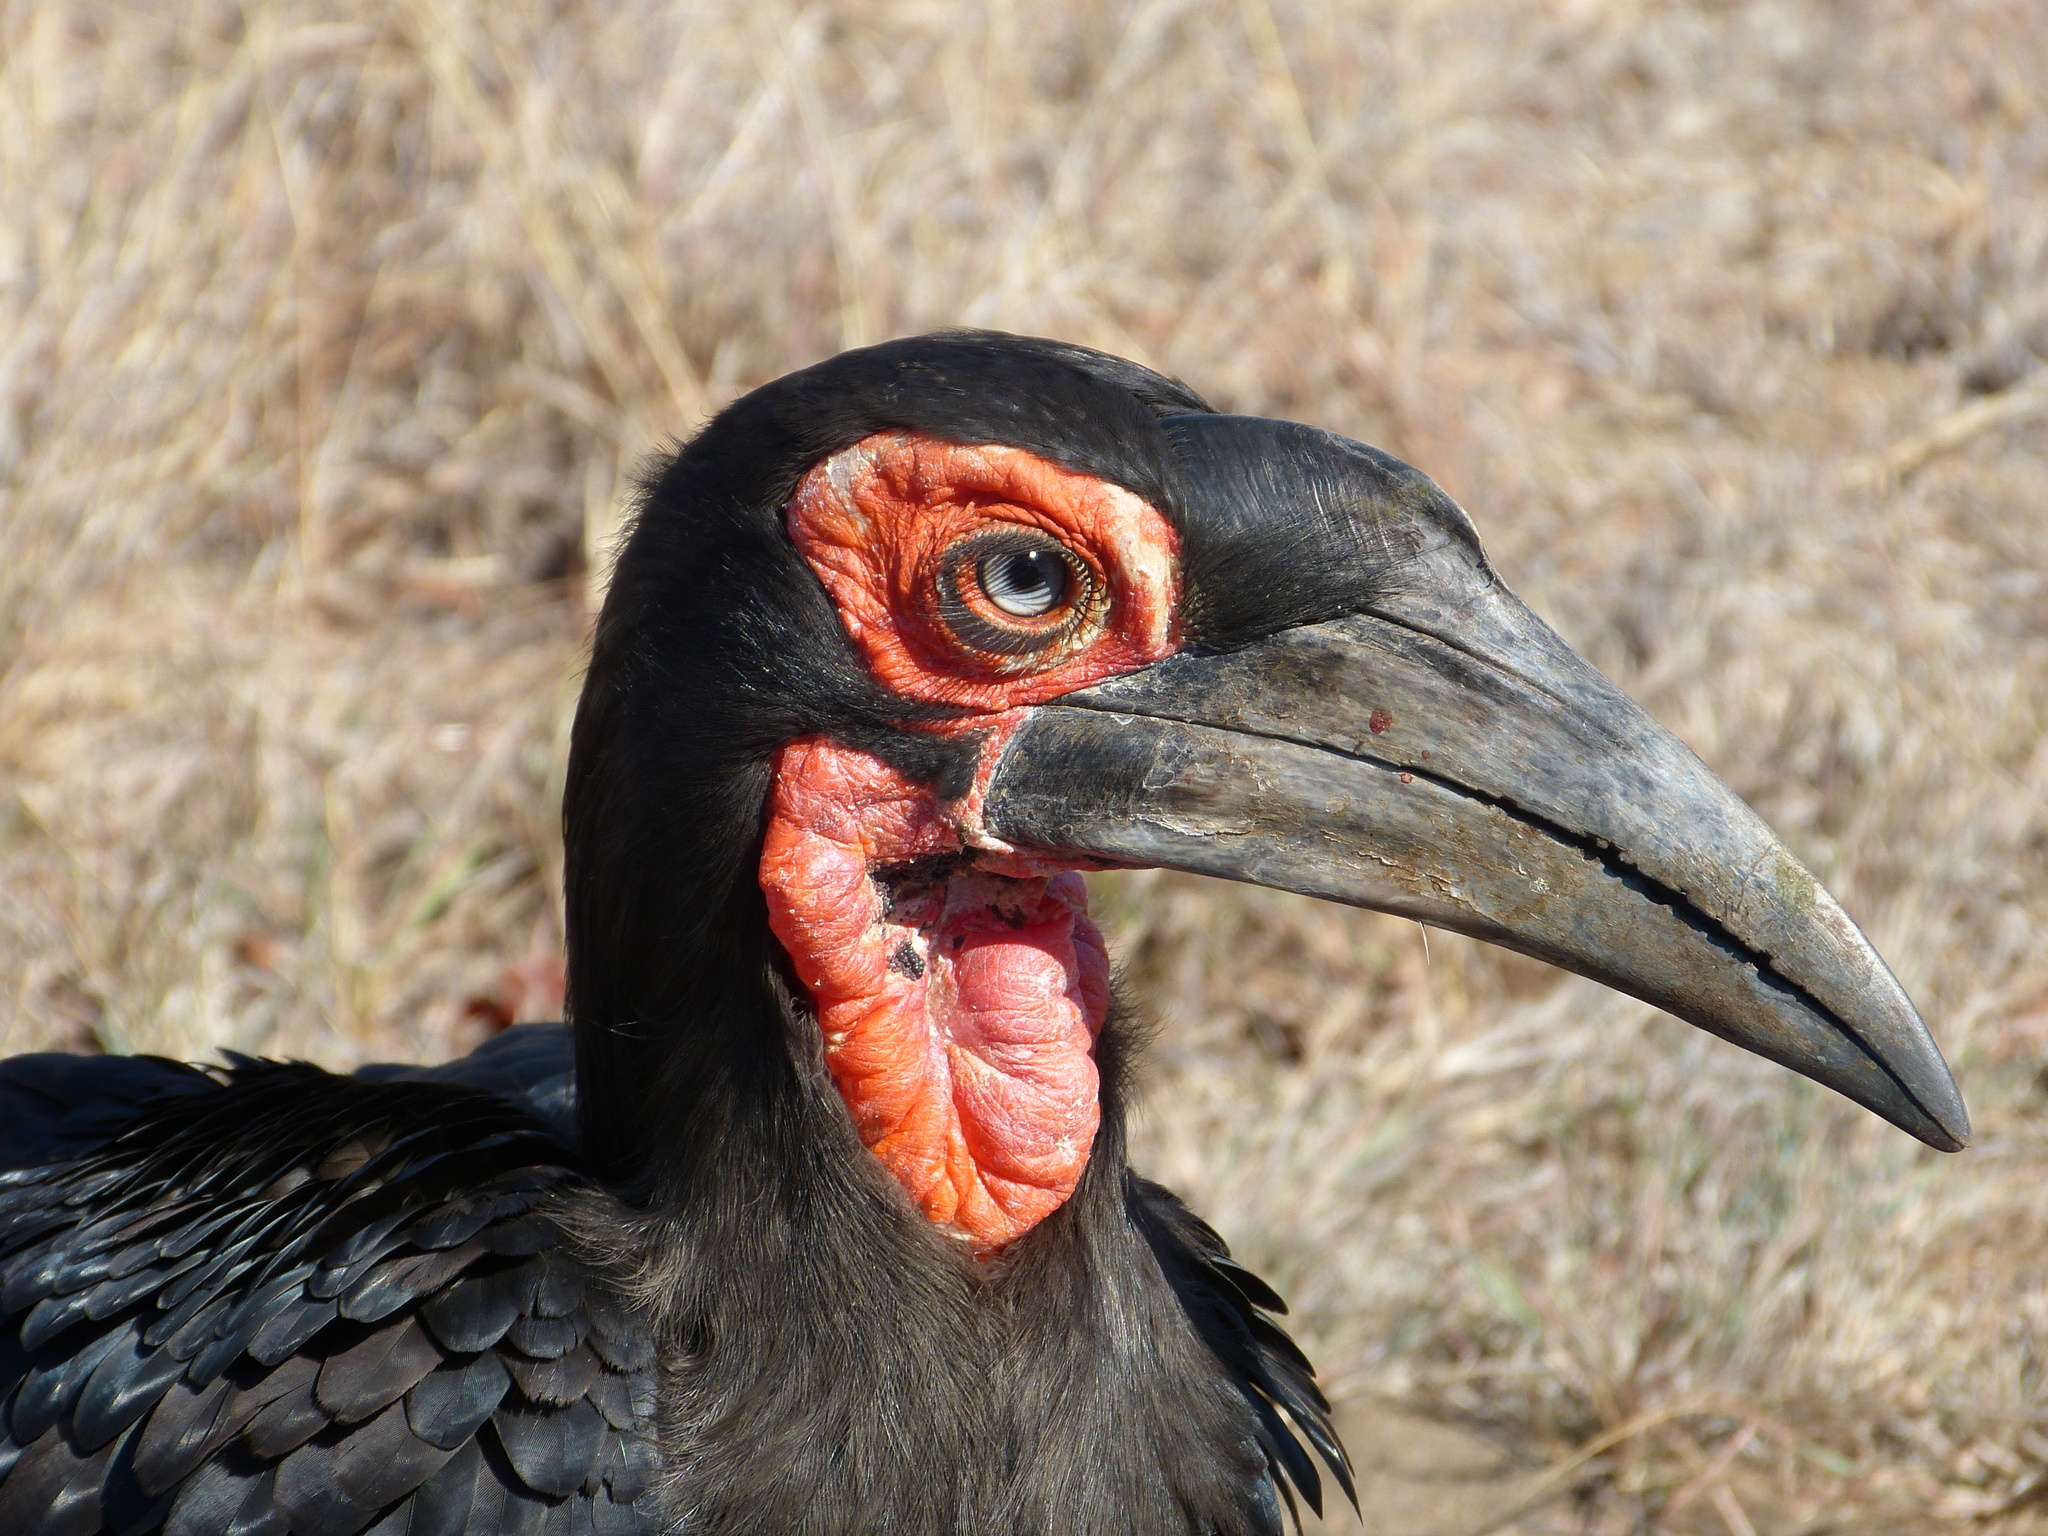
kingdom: Animalia
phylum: Chordata
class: Aves
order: Bucerotiformes
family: Bucorvidae
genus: Bucorvus
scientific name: Bucorvus leadbeateri
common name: Southern ground-hornbill
